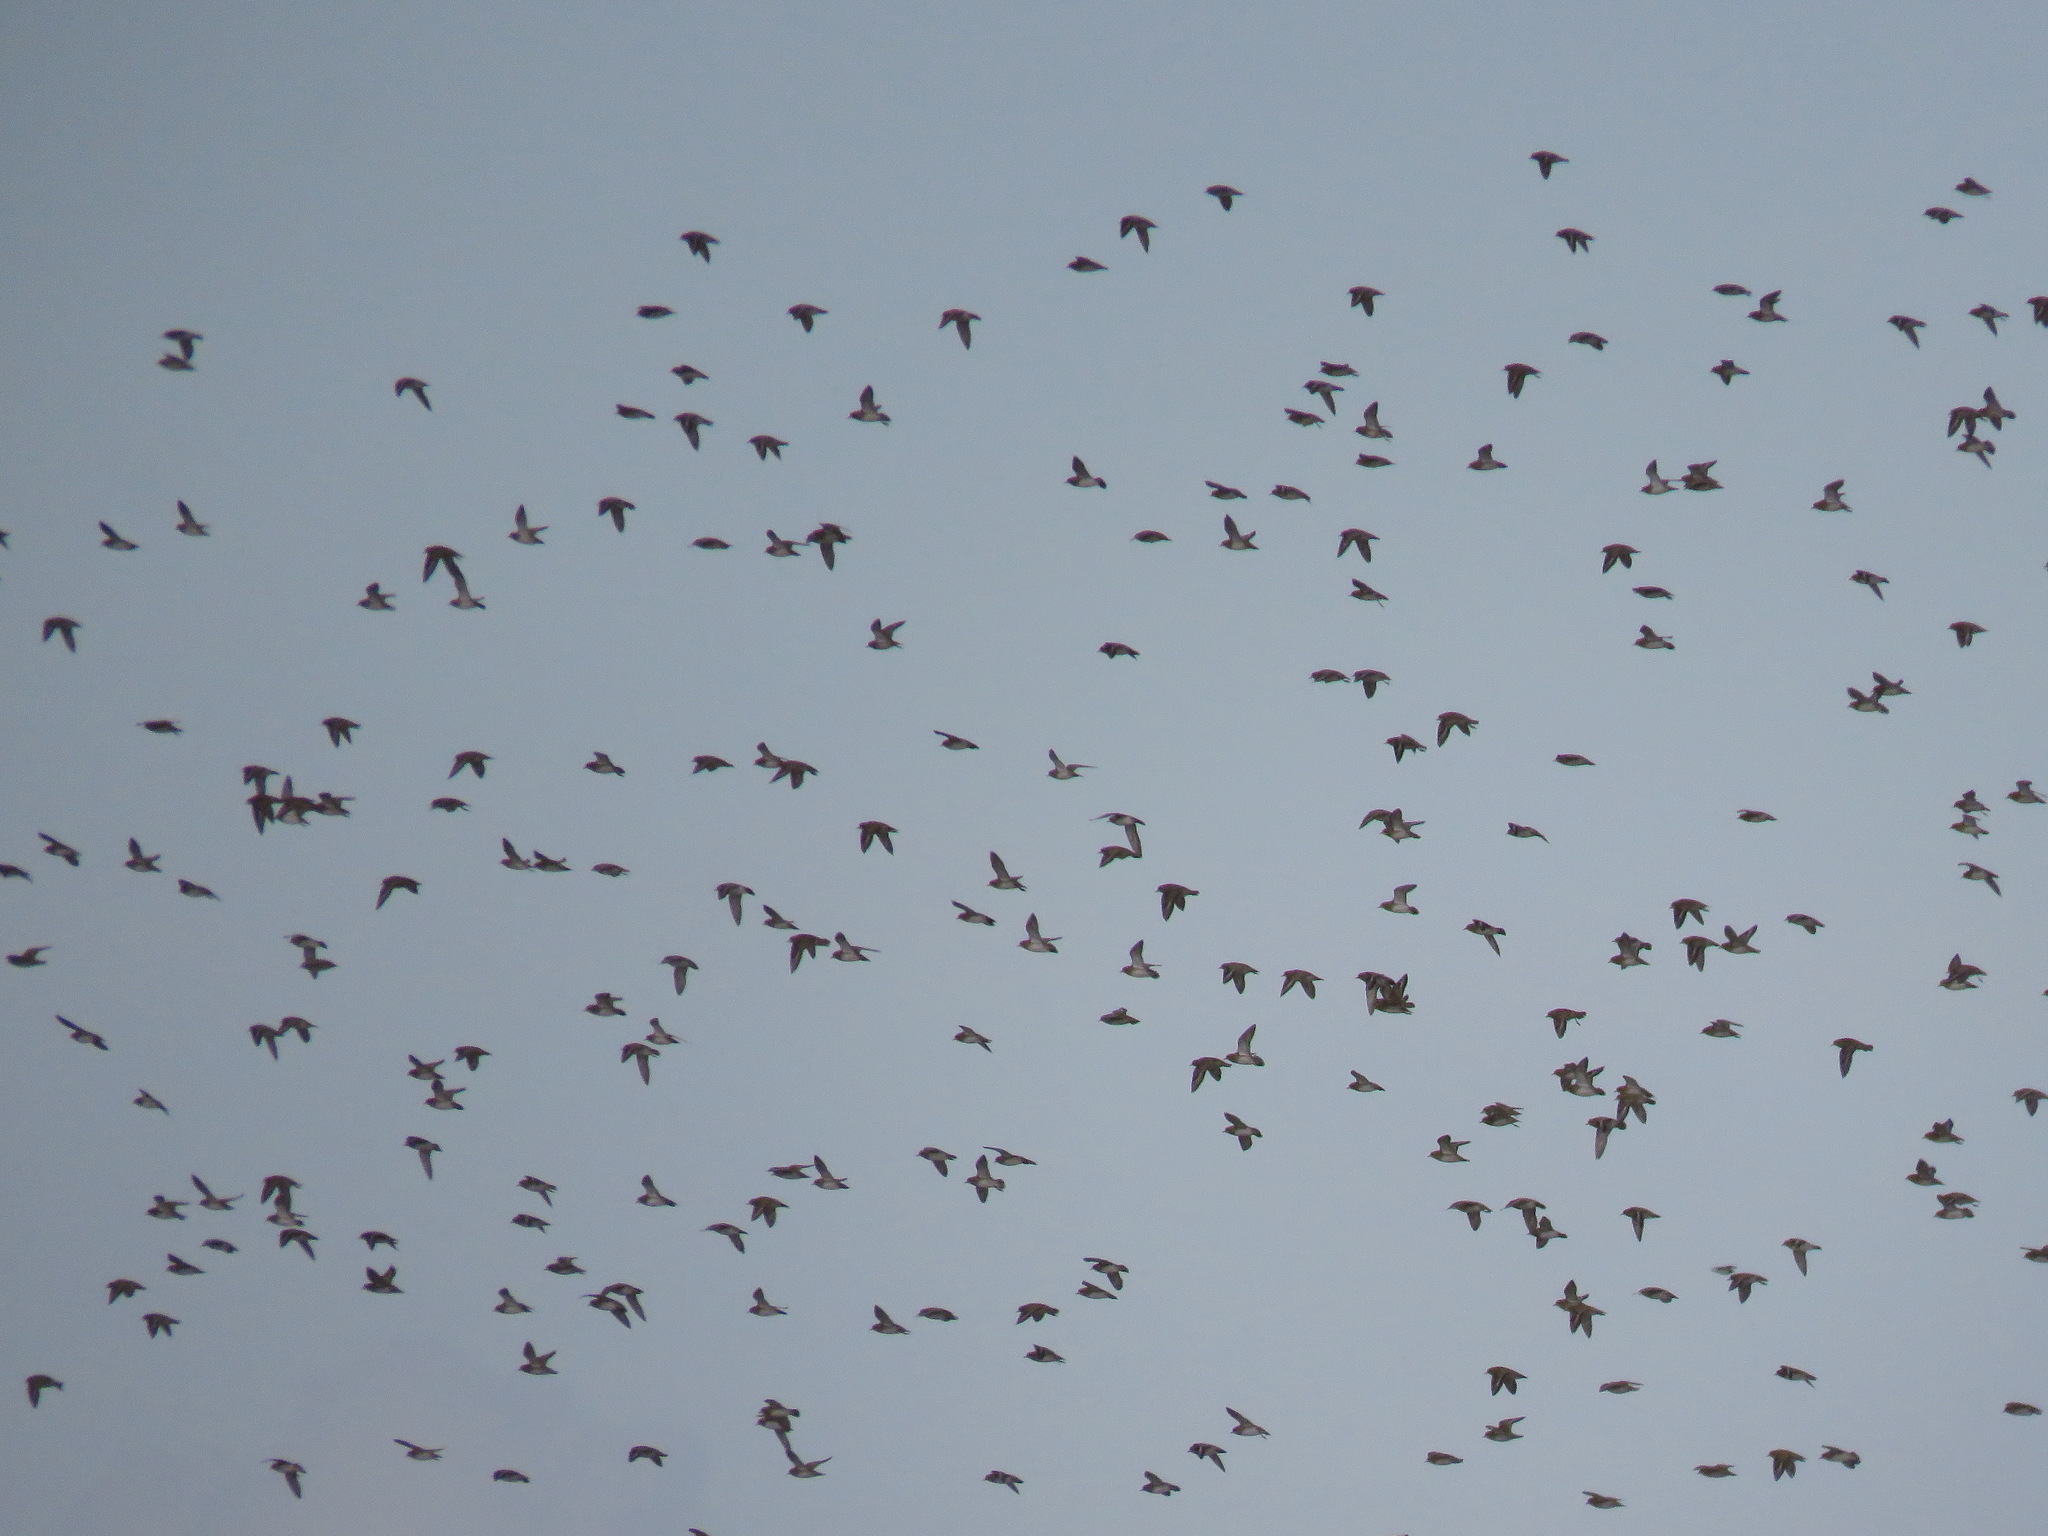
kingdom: Animalia
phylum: Chordata
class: Aves
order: Charadriiformes
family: Charadriidae
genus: Pluvialis
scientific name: Pluvialis apricaria
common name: European golden plover
